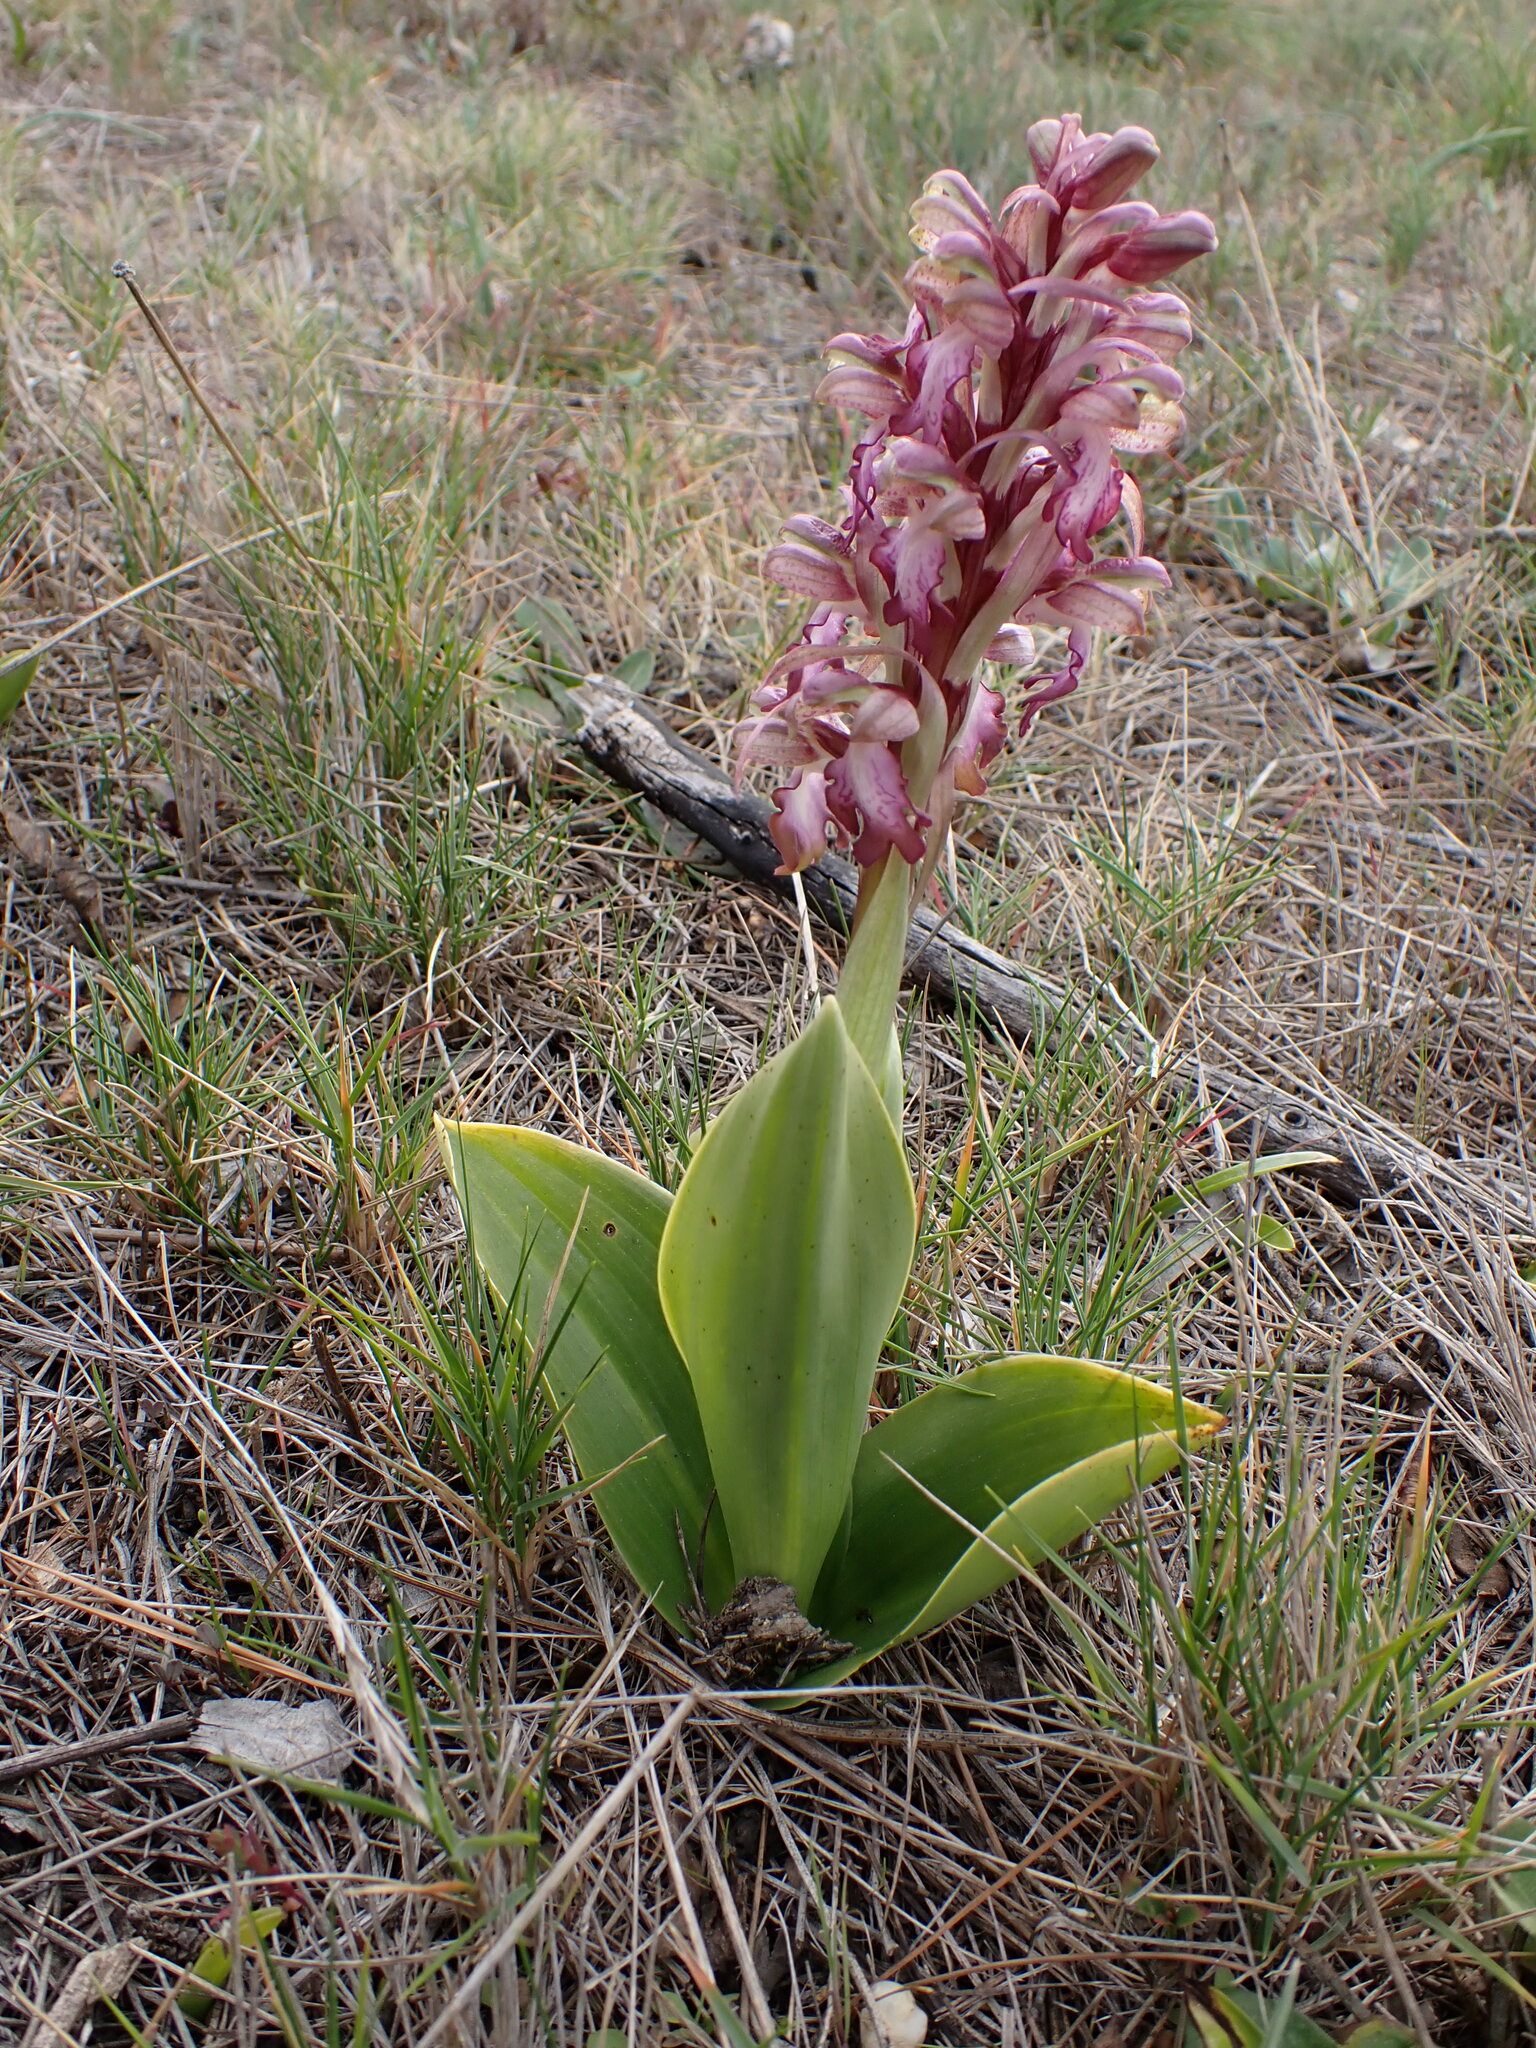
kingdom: Plantae
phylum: Tracheophyta
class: Liliopsida
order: Asparagales
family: Orchidaceae
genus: Himantoglossum
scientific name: Himantoglossum robertianum
